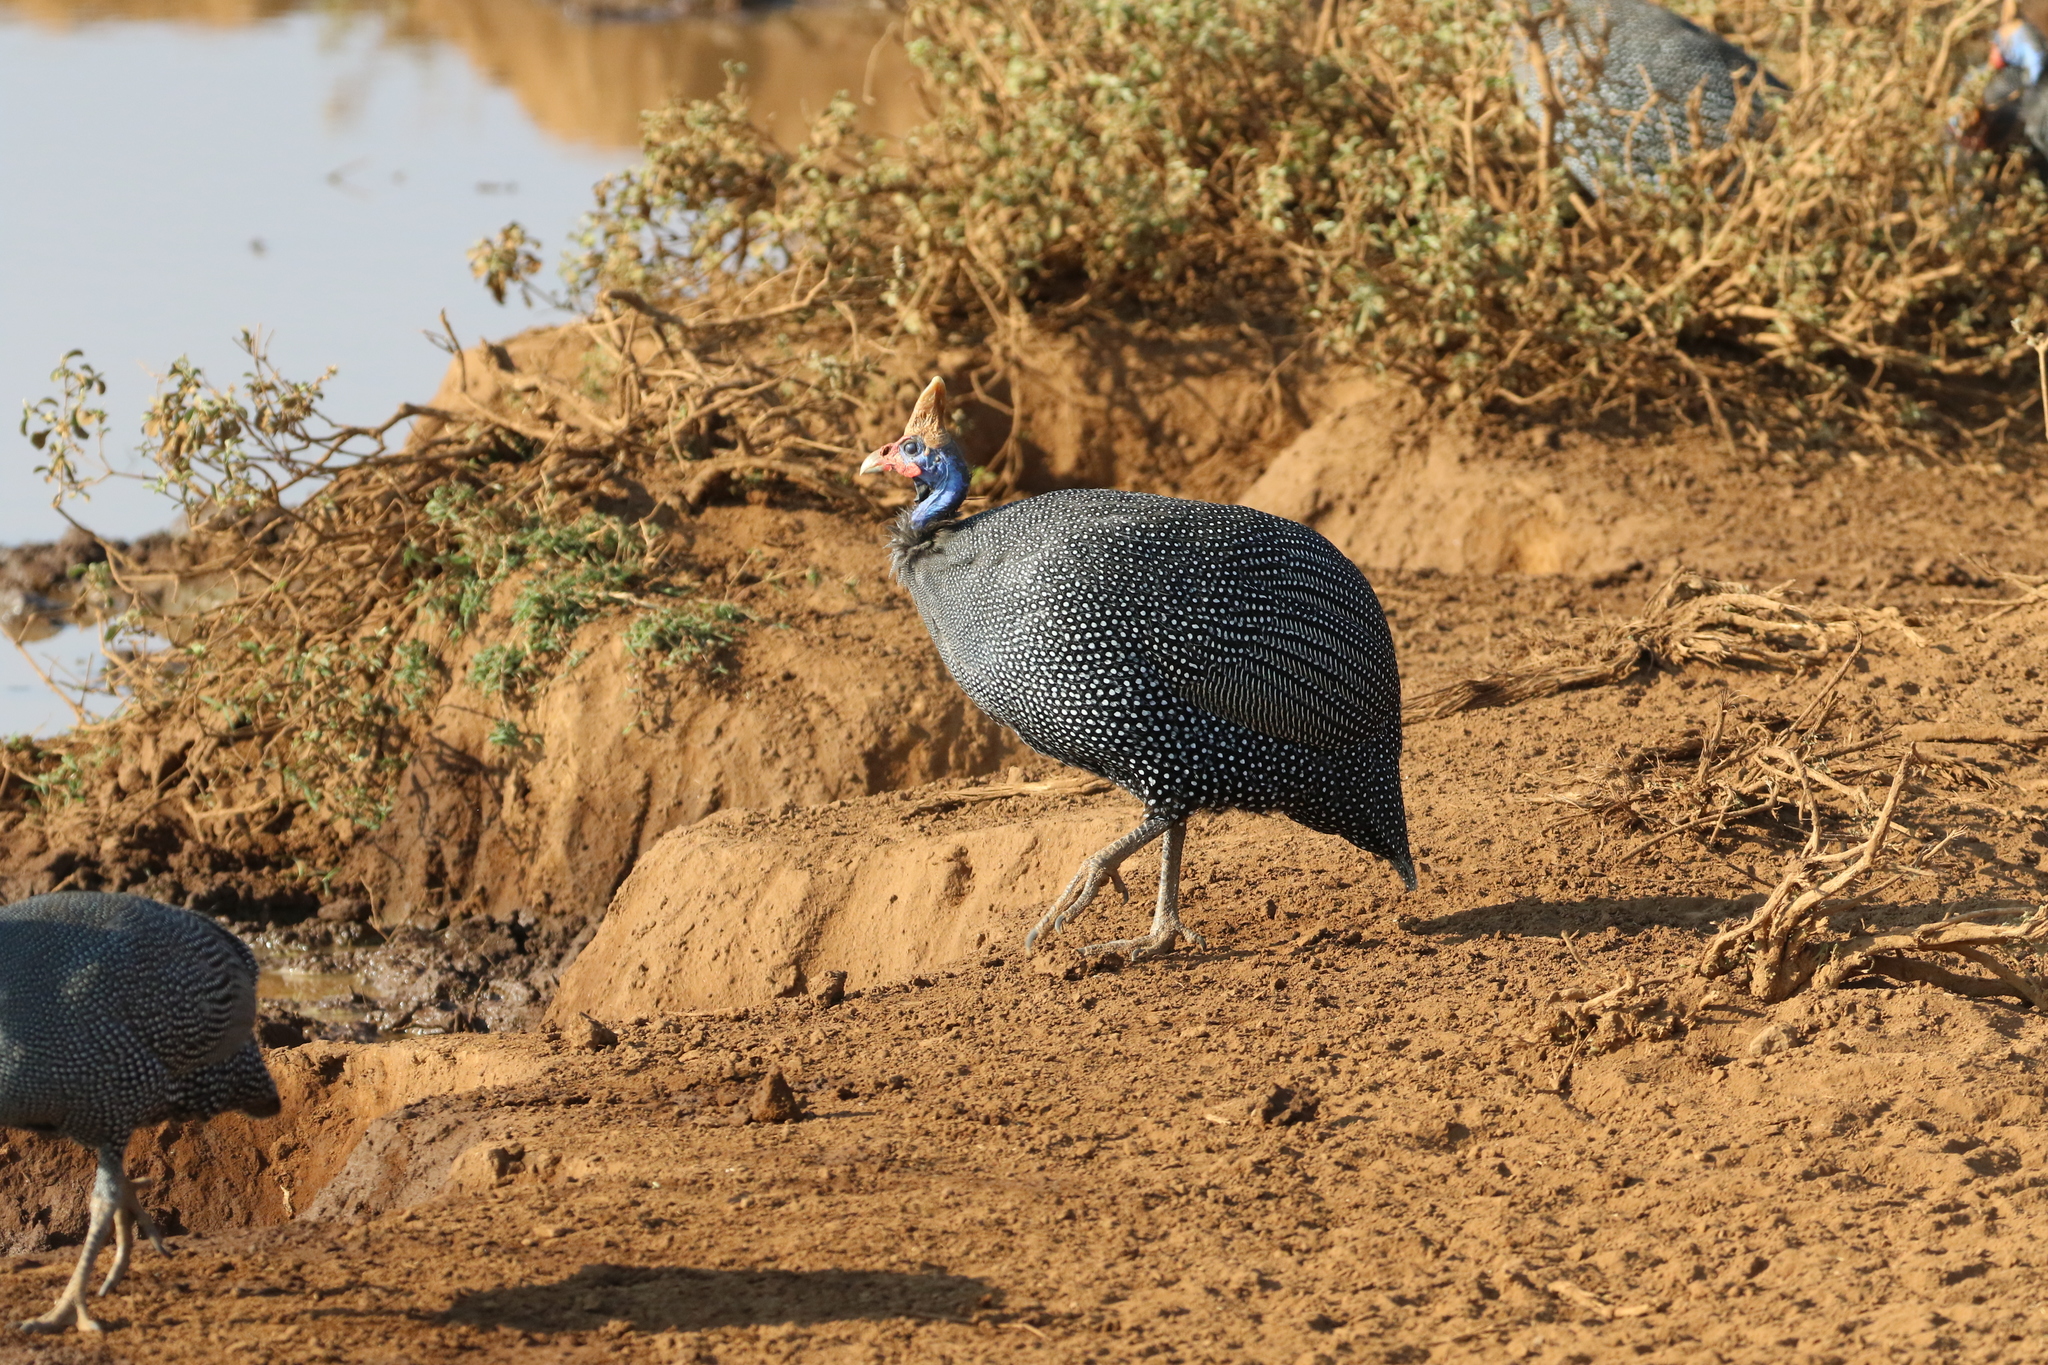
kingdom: Animalia
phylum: Chordata
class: Aves
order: Galliformes
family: Numididae
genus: Numida
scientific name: Numida meleagris
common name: Helmeted guineafowl
